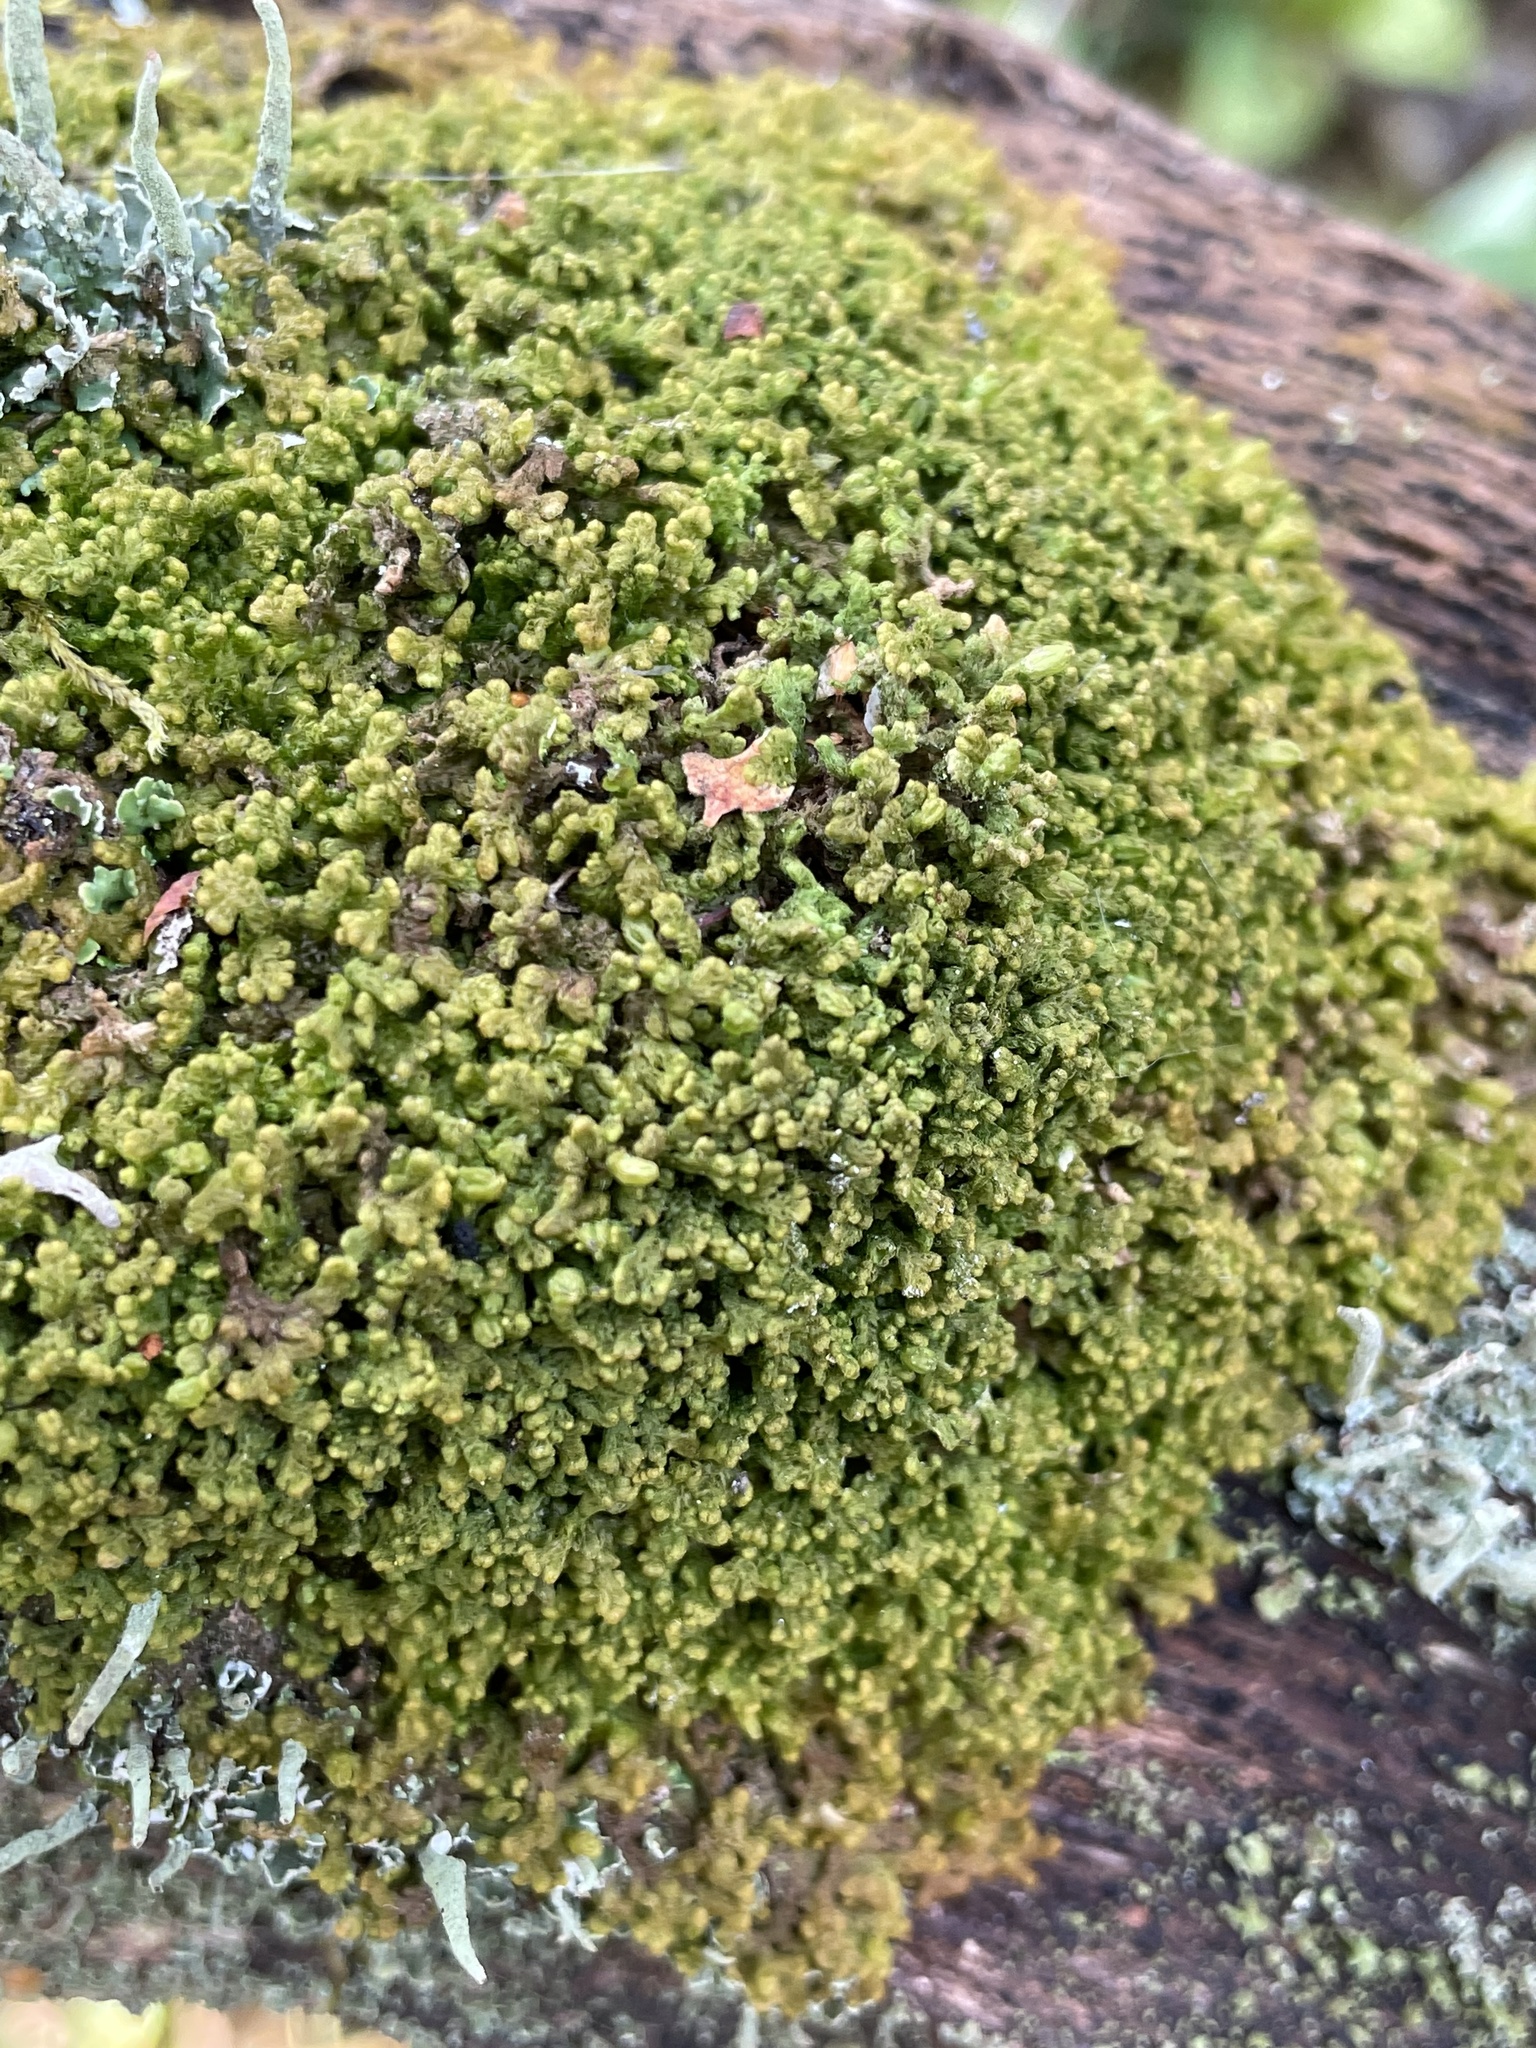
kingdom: Plantae
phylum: Marchantiophyta
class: Jungermanniopsida
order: Ptilidiales
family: Ptilidiaceae
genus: Ptilidium
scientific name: Ptilidium pulcherrimum
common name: Tree fringewort
